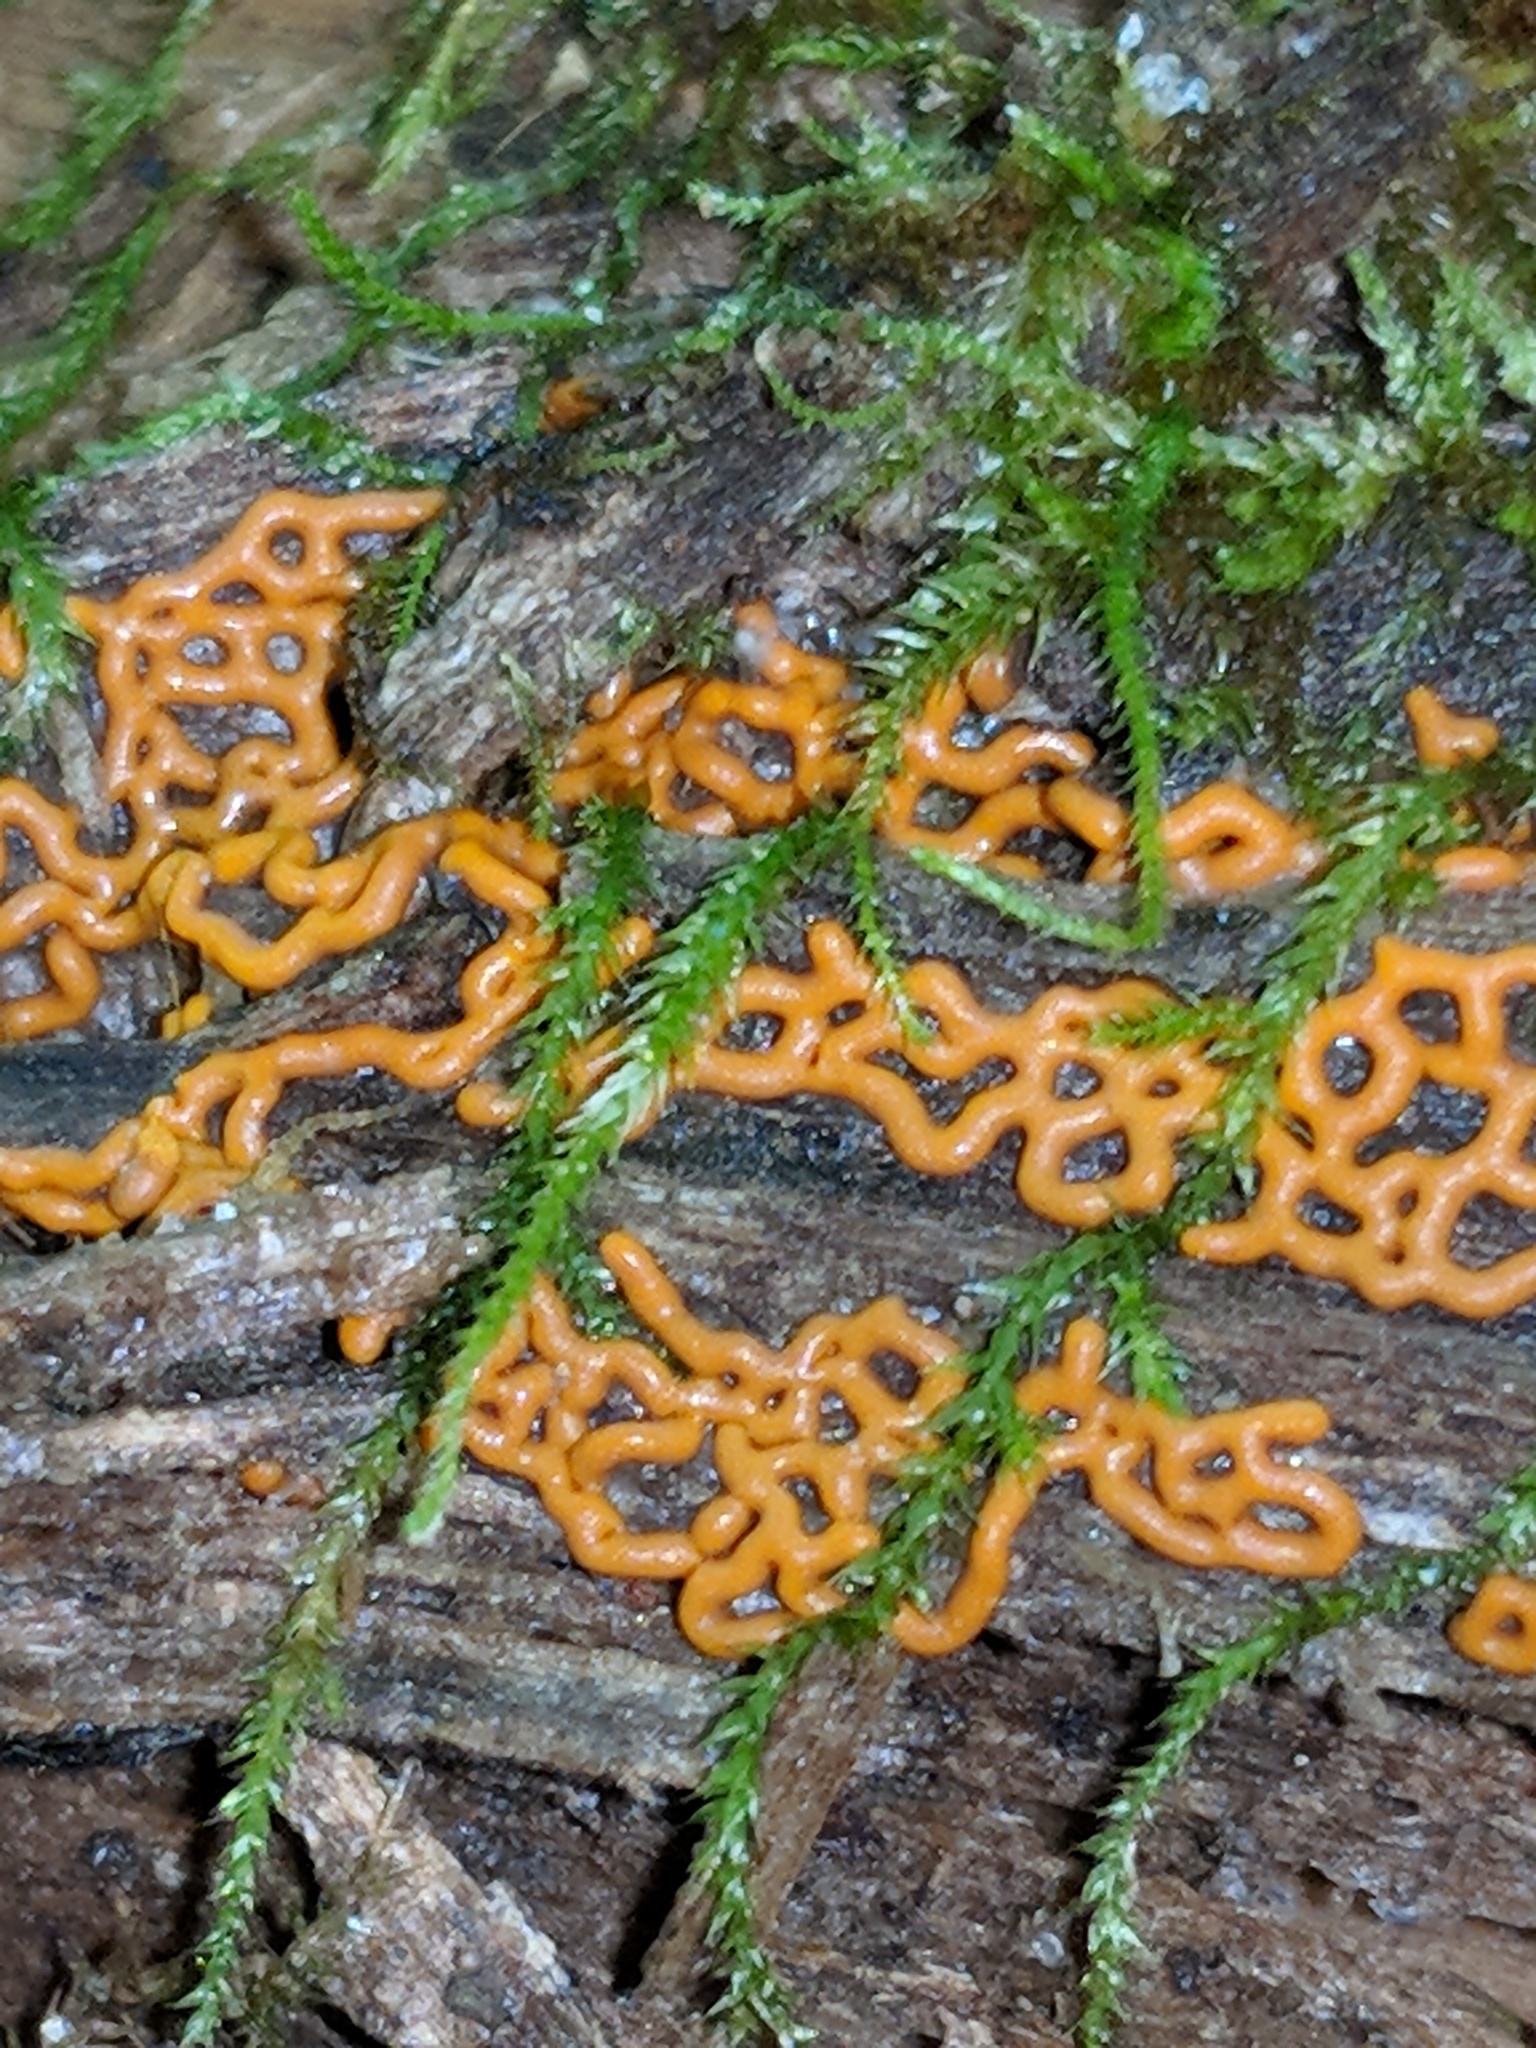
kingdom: Protozoa
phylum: Mycetozoa
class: Myxomycetes
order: Trichiales
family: Arcyriaceae
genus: Hemitrichia
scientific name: Hemitrichia serpula
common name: Pretzel slime mold
